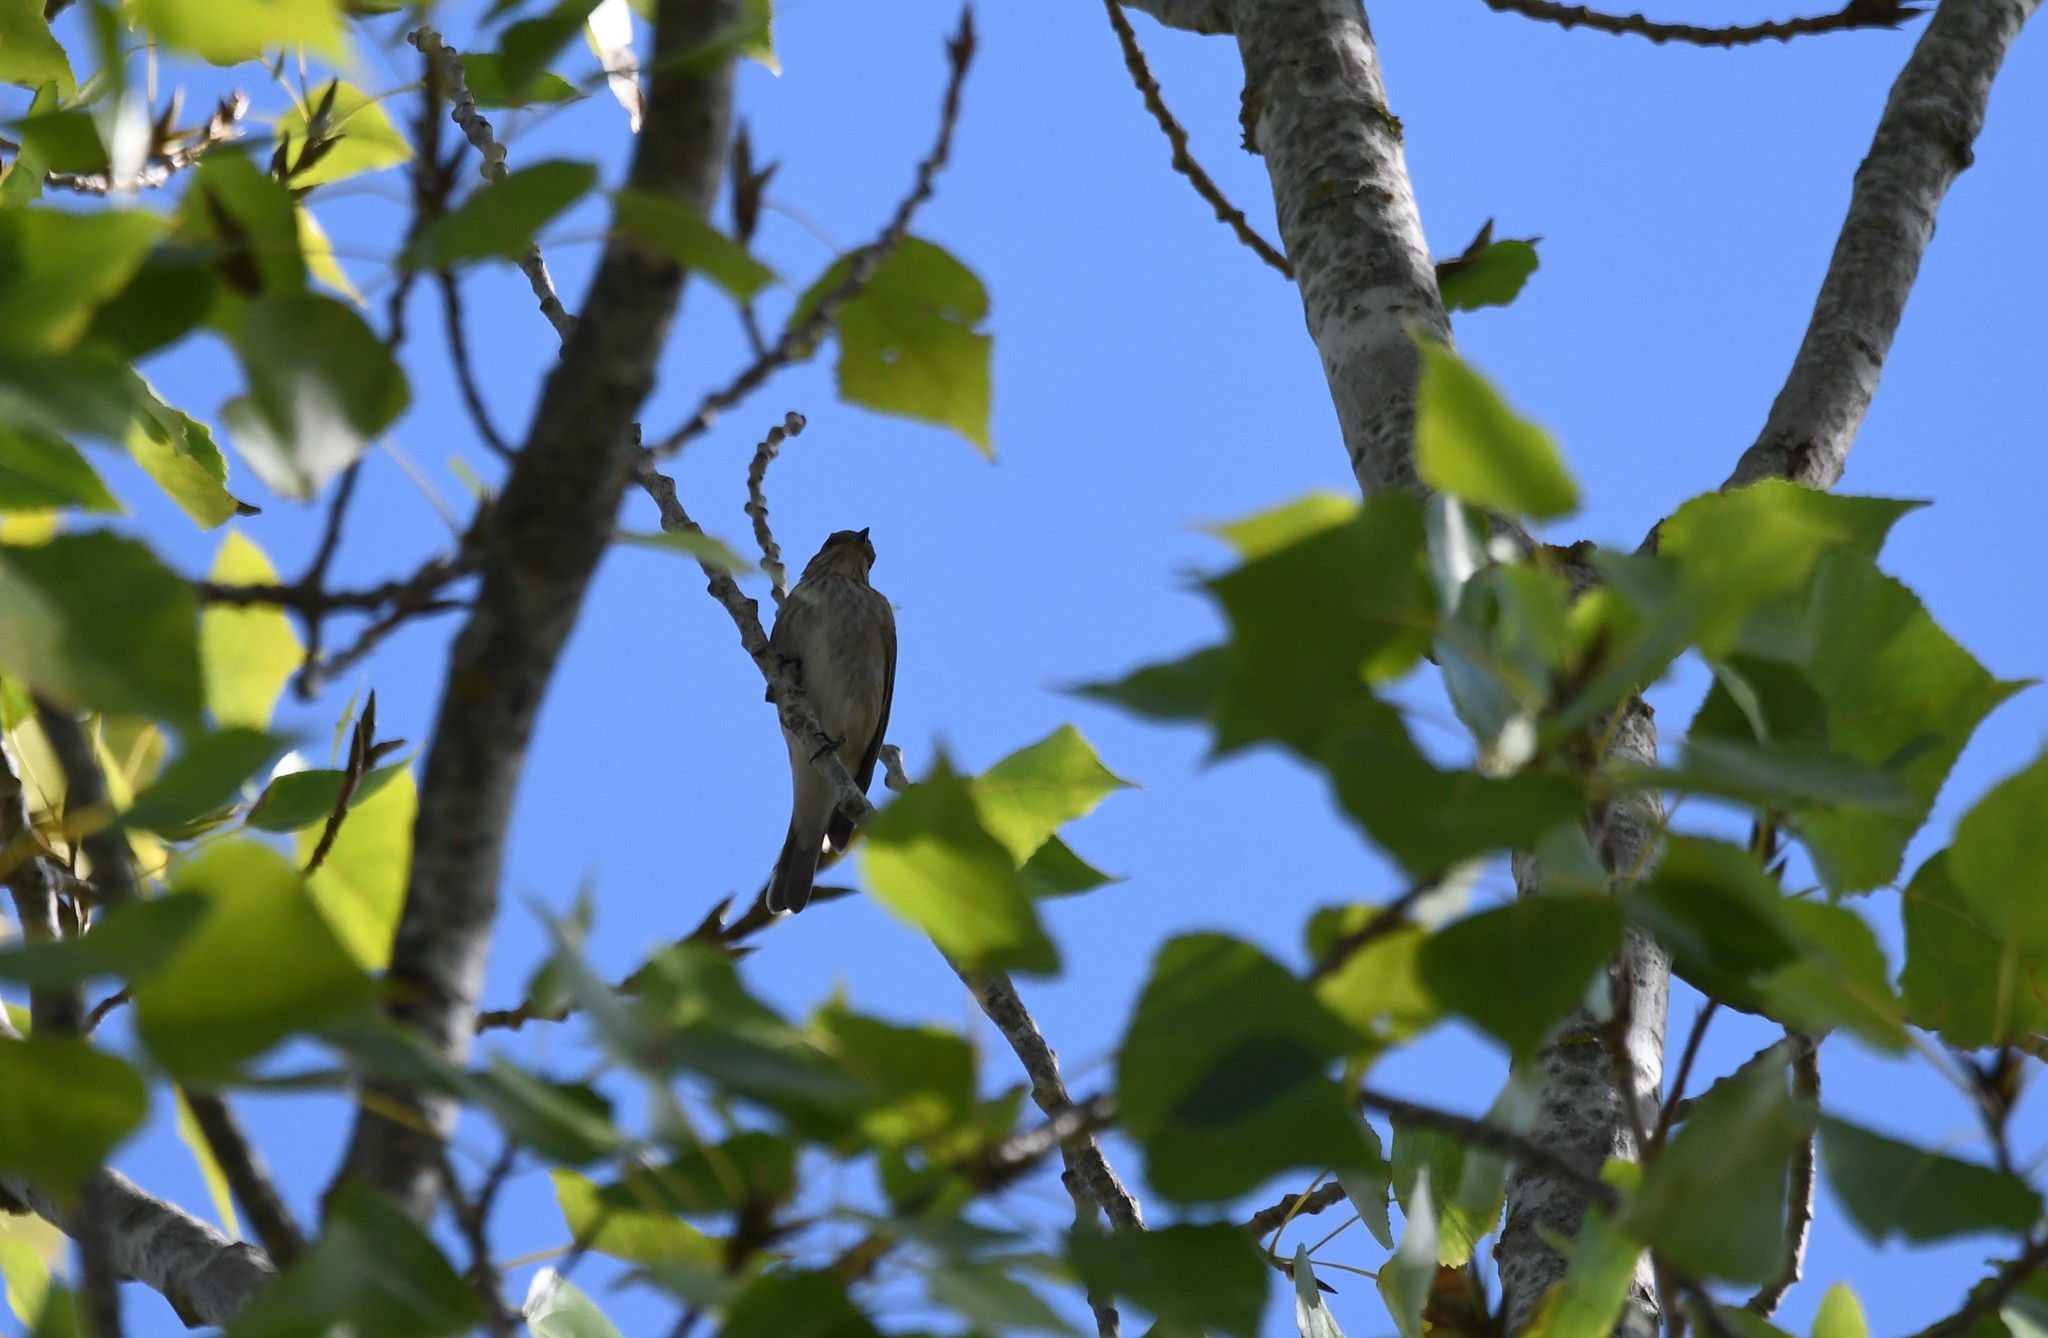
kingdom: Animalia
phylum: Chordata
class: Aves
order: Passeriformes
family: Muscicapidae
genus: Muscicapa
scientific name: Muscicapa striata
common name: Spotted flycatcher
